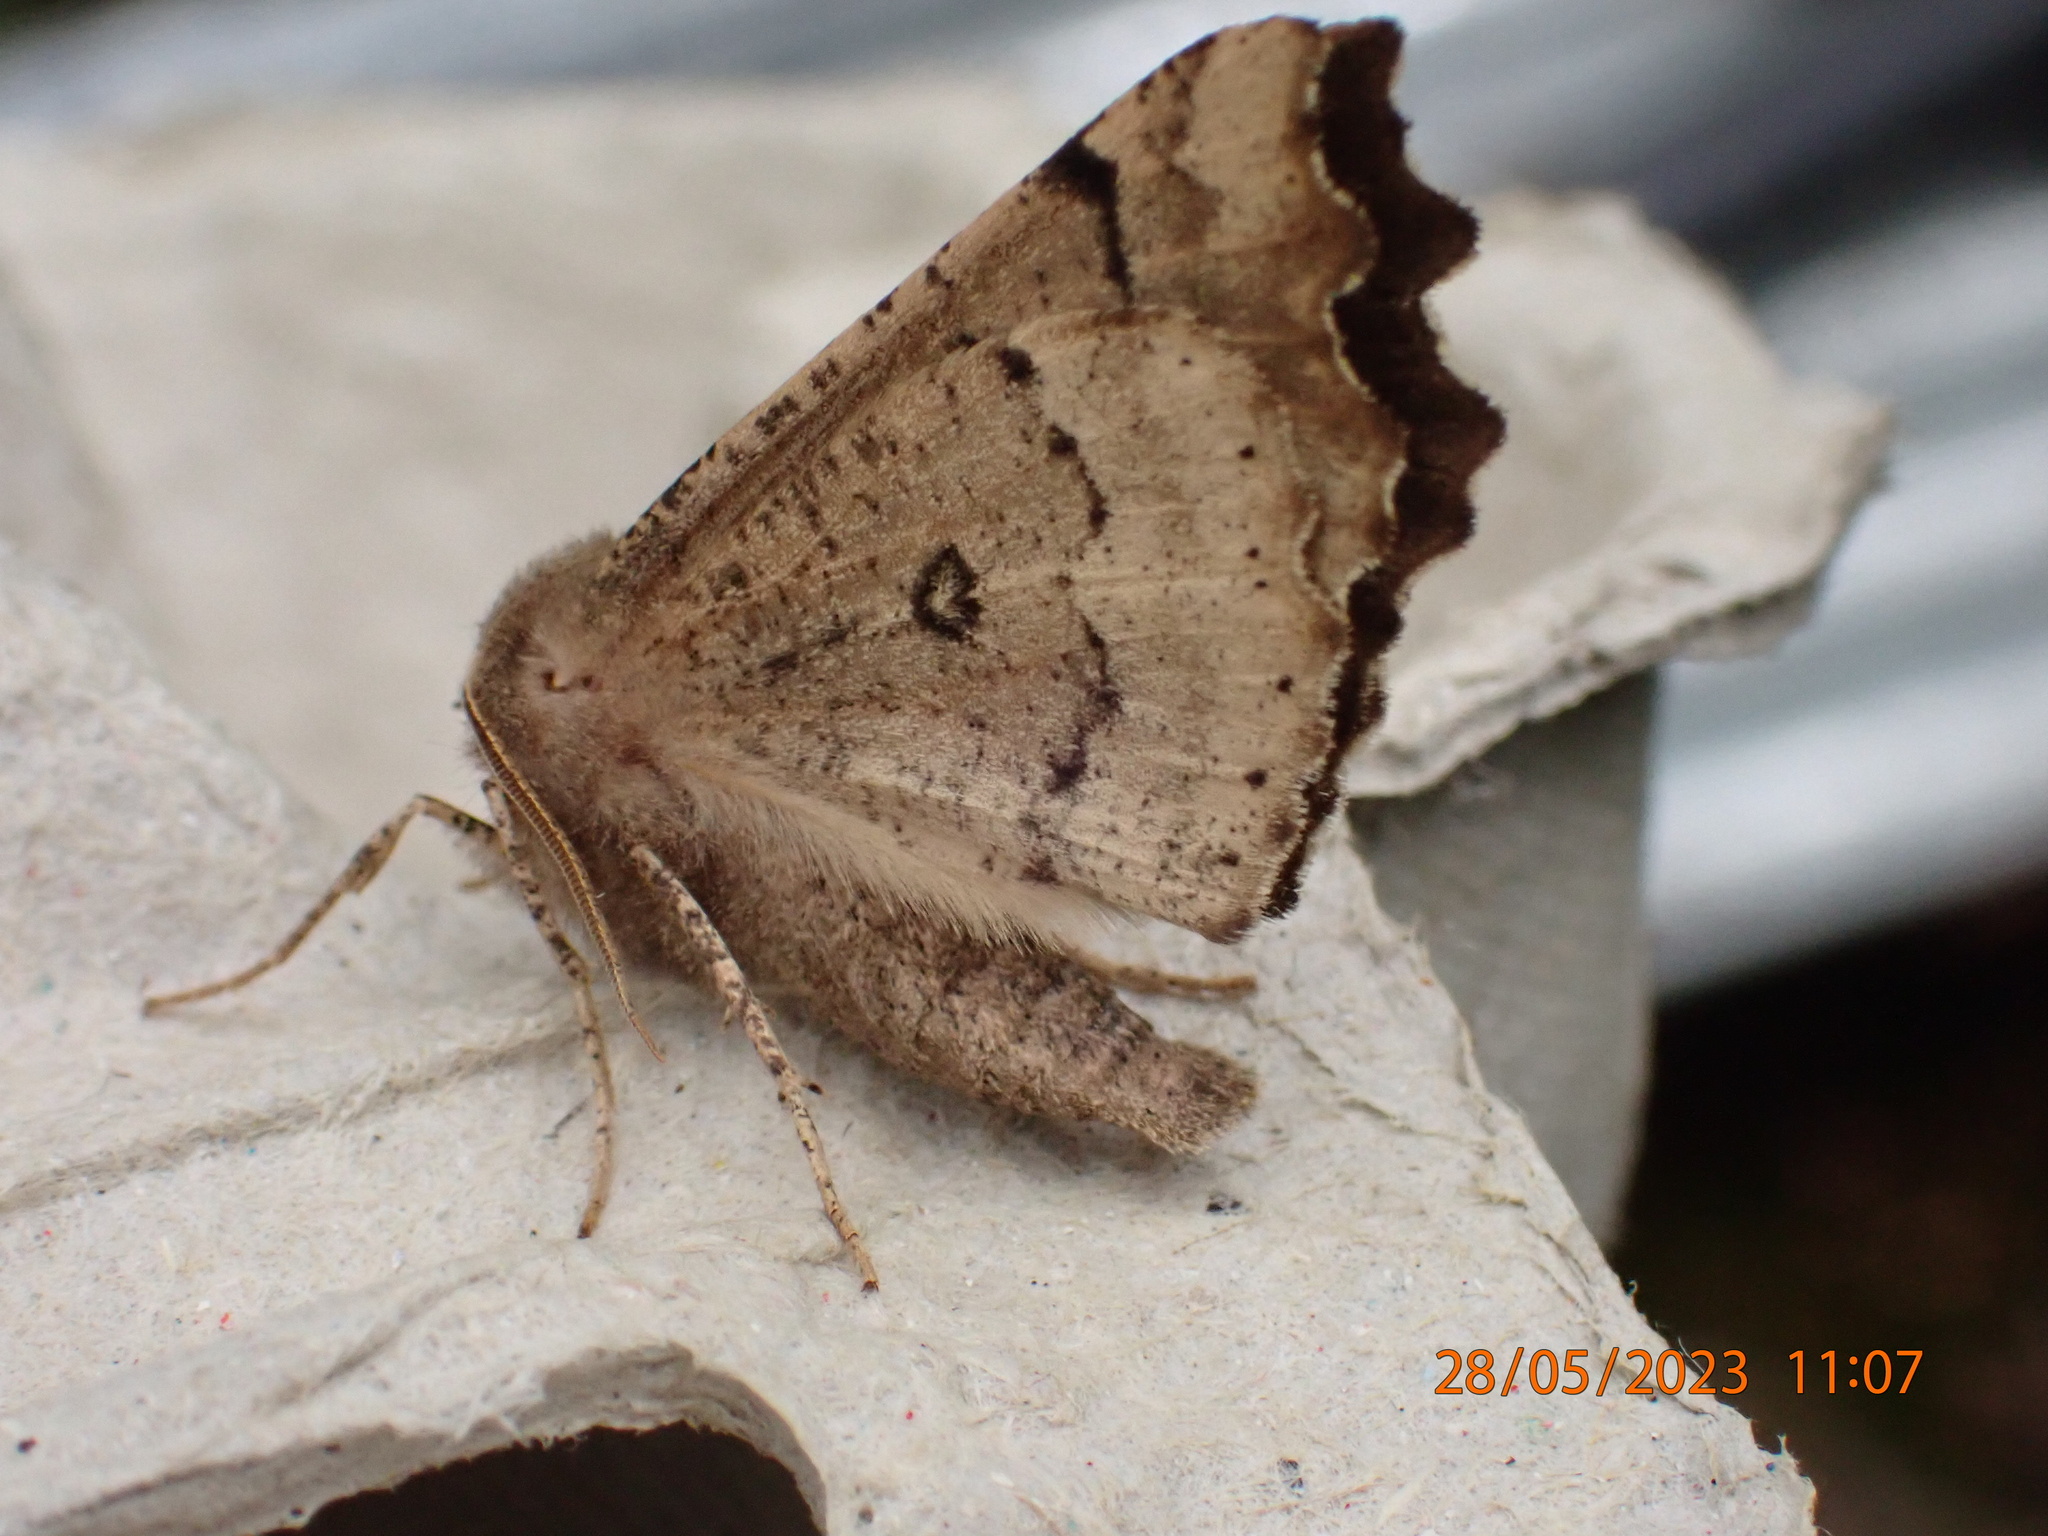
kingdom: Animalia
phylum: Arthropoda
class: Insecta
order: Lepidoptera
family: Geometridae
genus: Odontopera
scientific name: Odontopera bidentata
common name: Scalloped hazel
